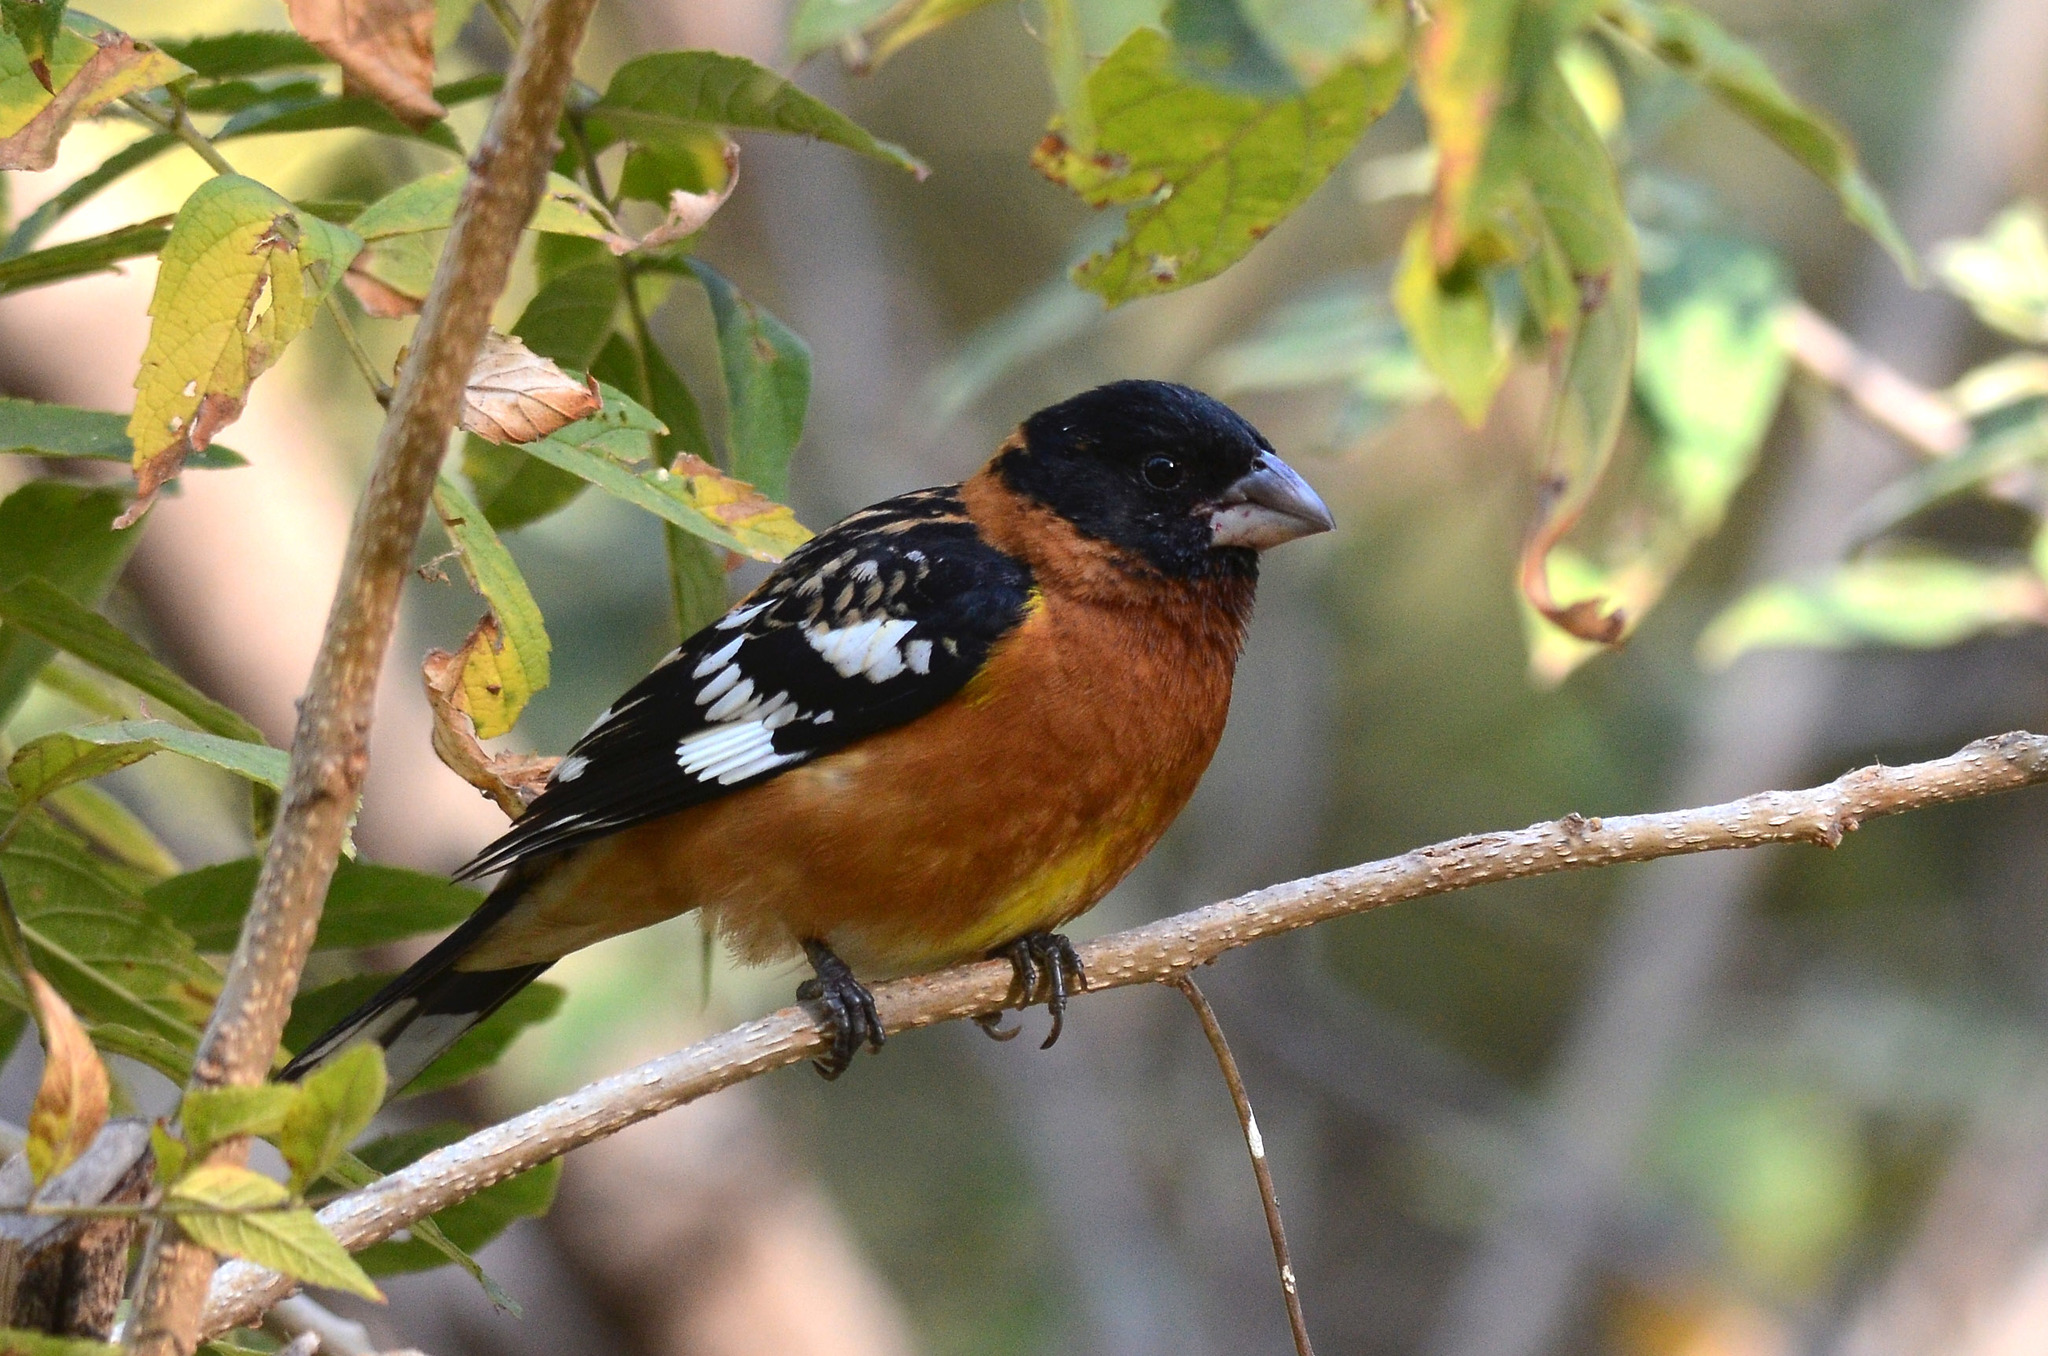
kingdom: Animalia
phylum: Chordata
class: Aves
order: Passeriformes
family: Cardinalidae
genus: Pheucticus
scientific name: Pheucticus melanocephalus
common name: Black-headed grosbeak
